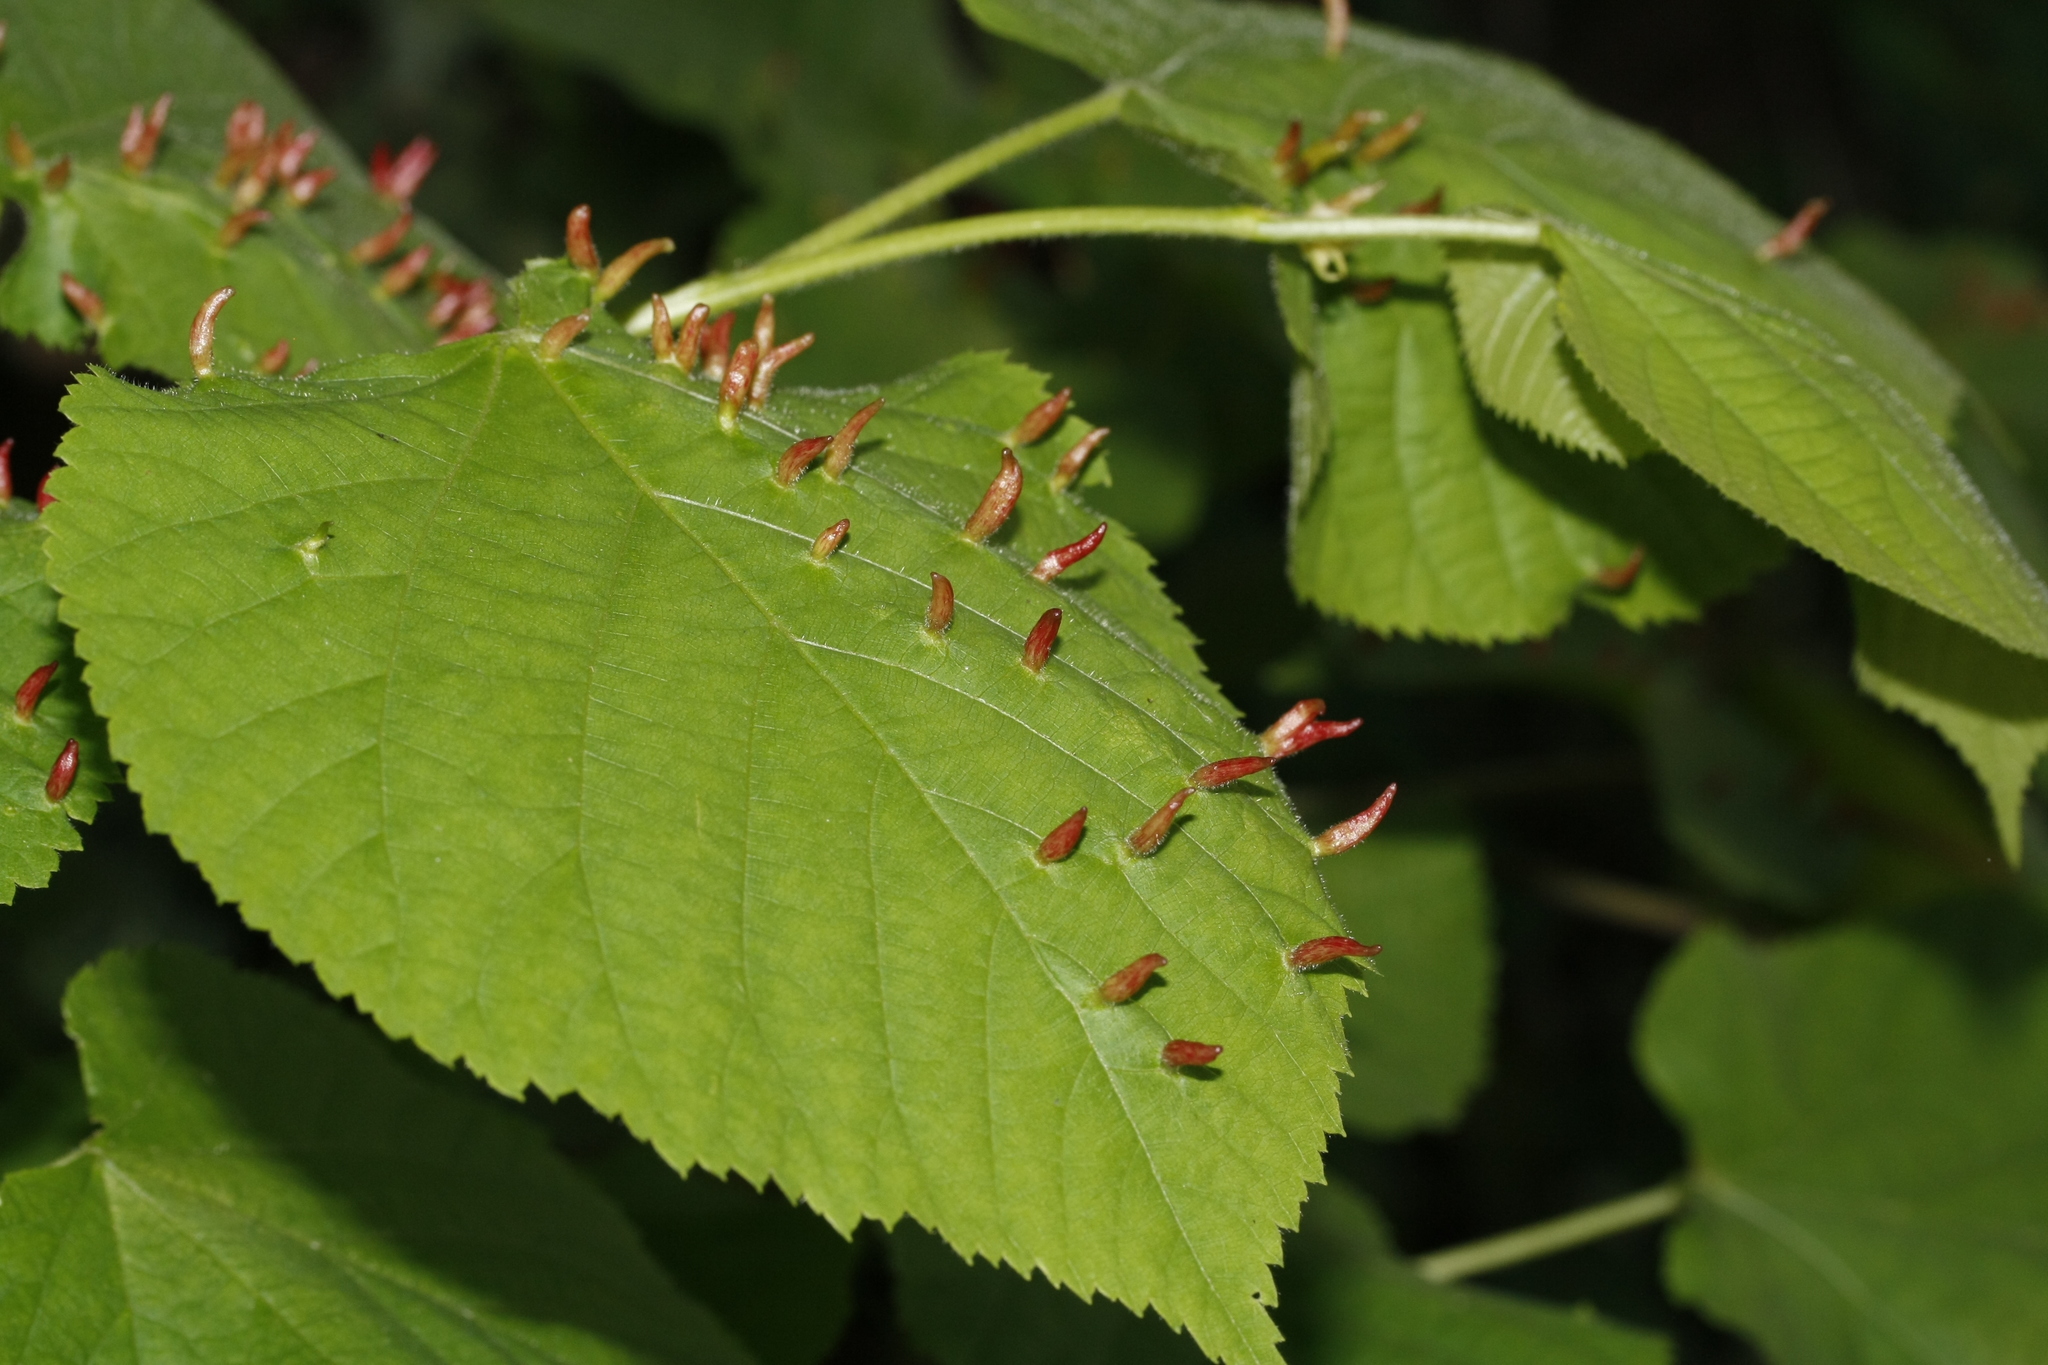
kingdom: Animalia
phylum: Arthropoda
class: Arachnida
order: Trombidiformes
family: Eriophyidae
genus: Eriophyes
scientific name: Eriophyes tiliae
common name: Red nail gall mite
